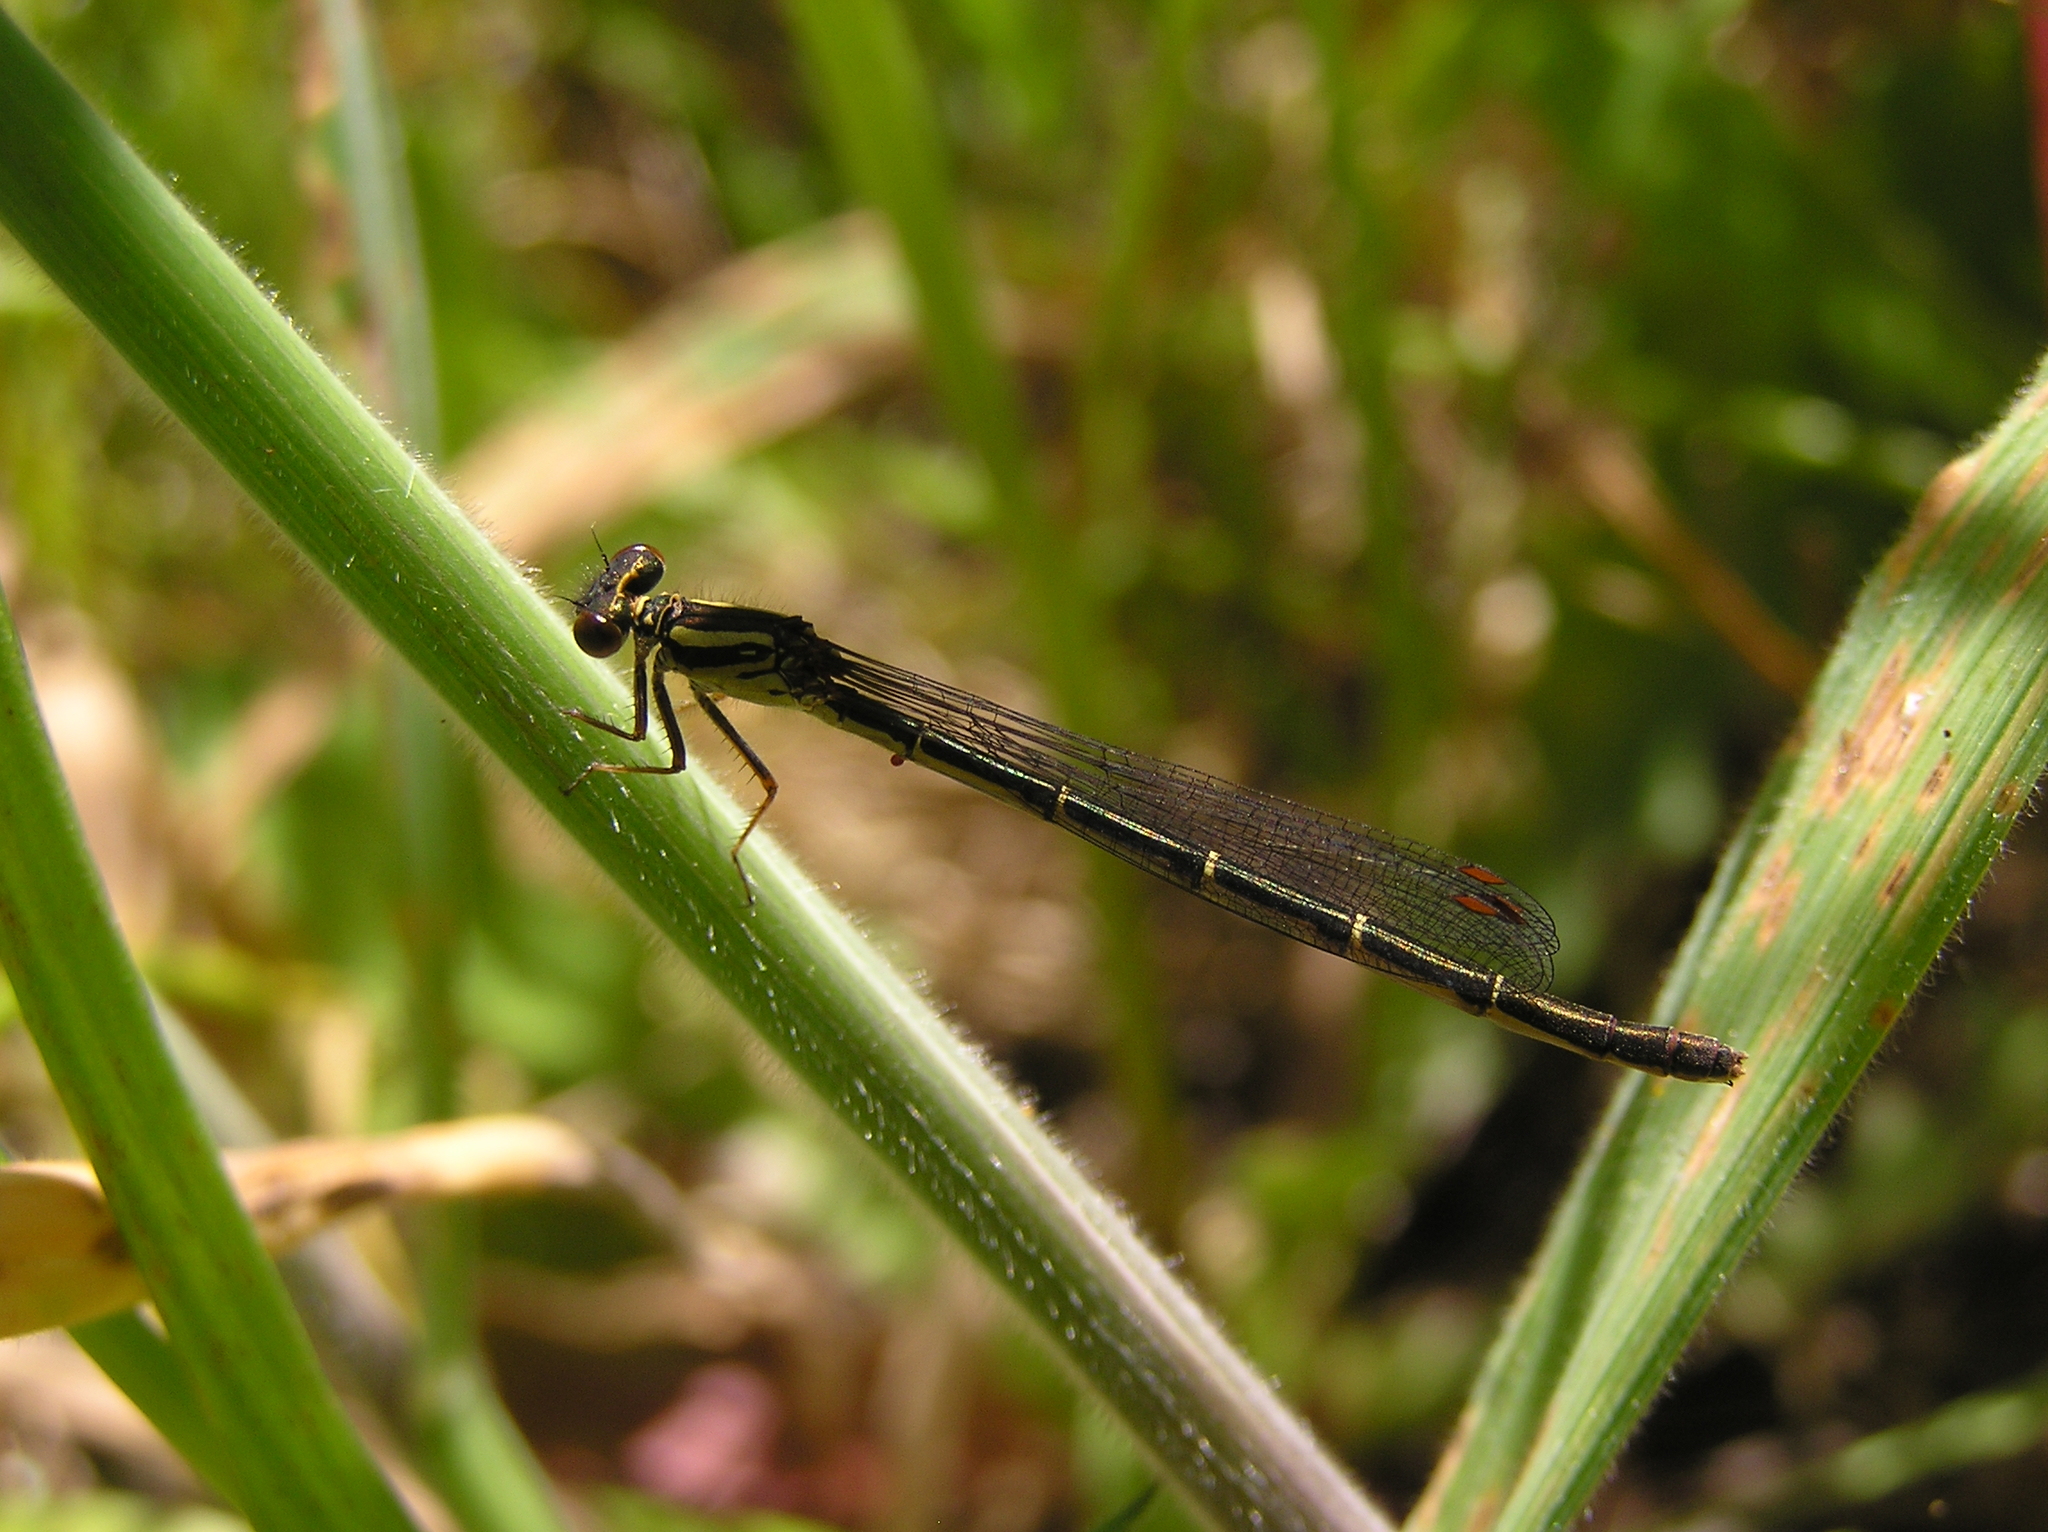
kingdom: Animalia
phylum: Arthropoda
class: Insecta
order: Odonata
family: Coenagrionidae
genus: Xanthocnemis
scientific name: Xanthocnemis zealandica
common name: Common redcoat damselfly
